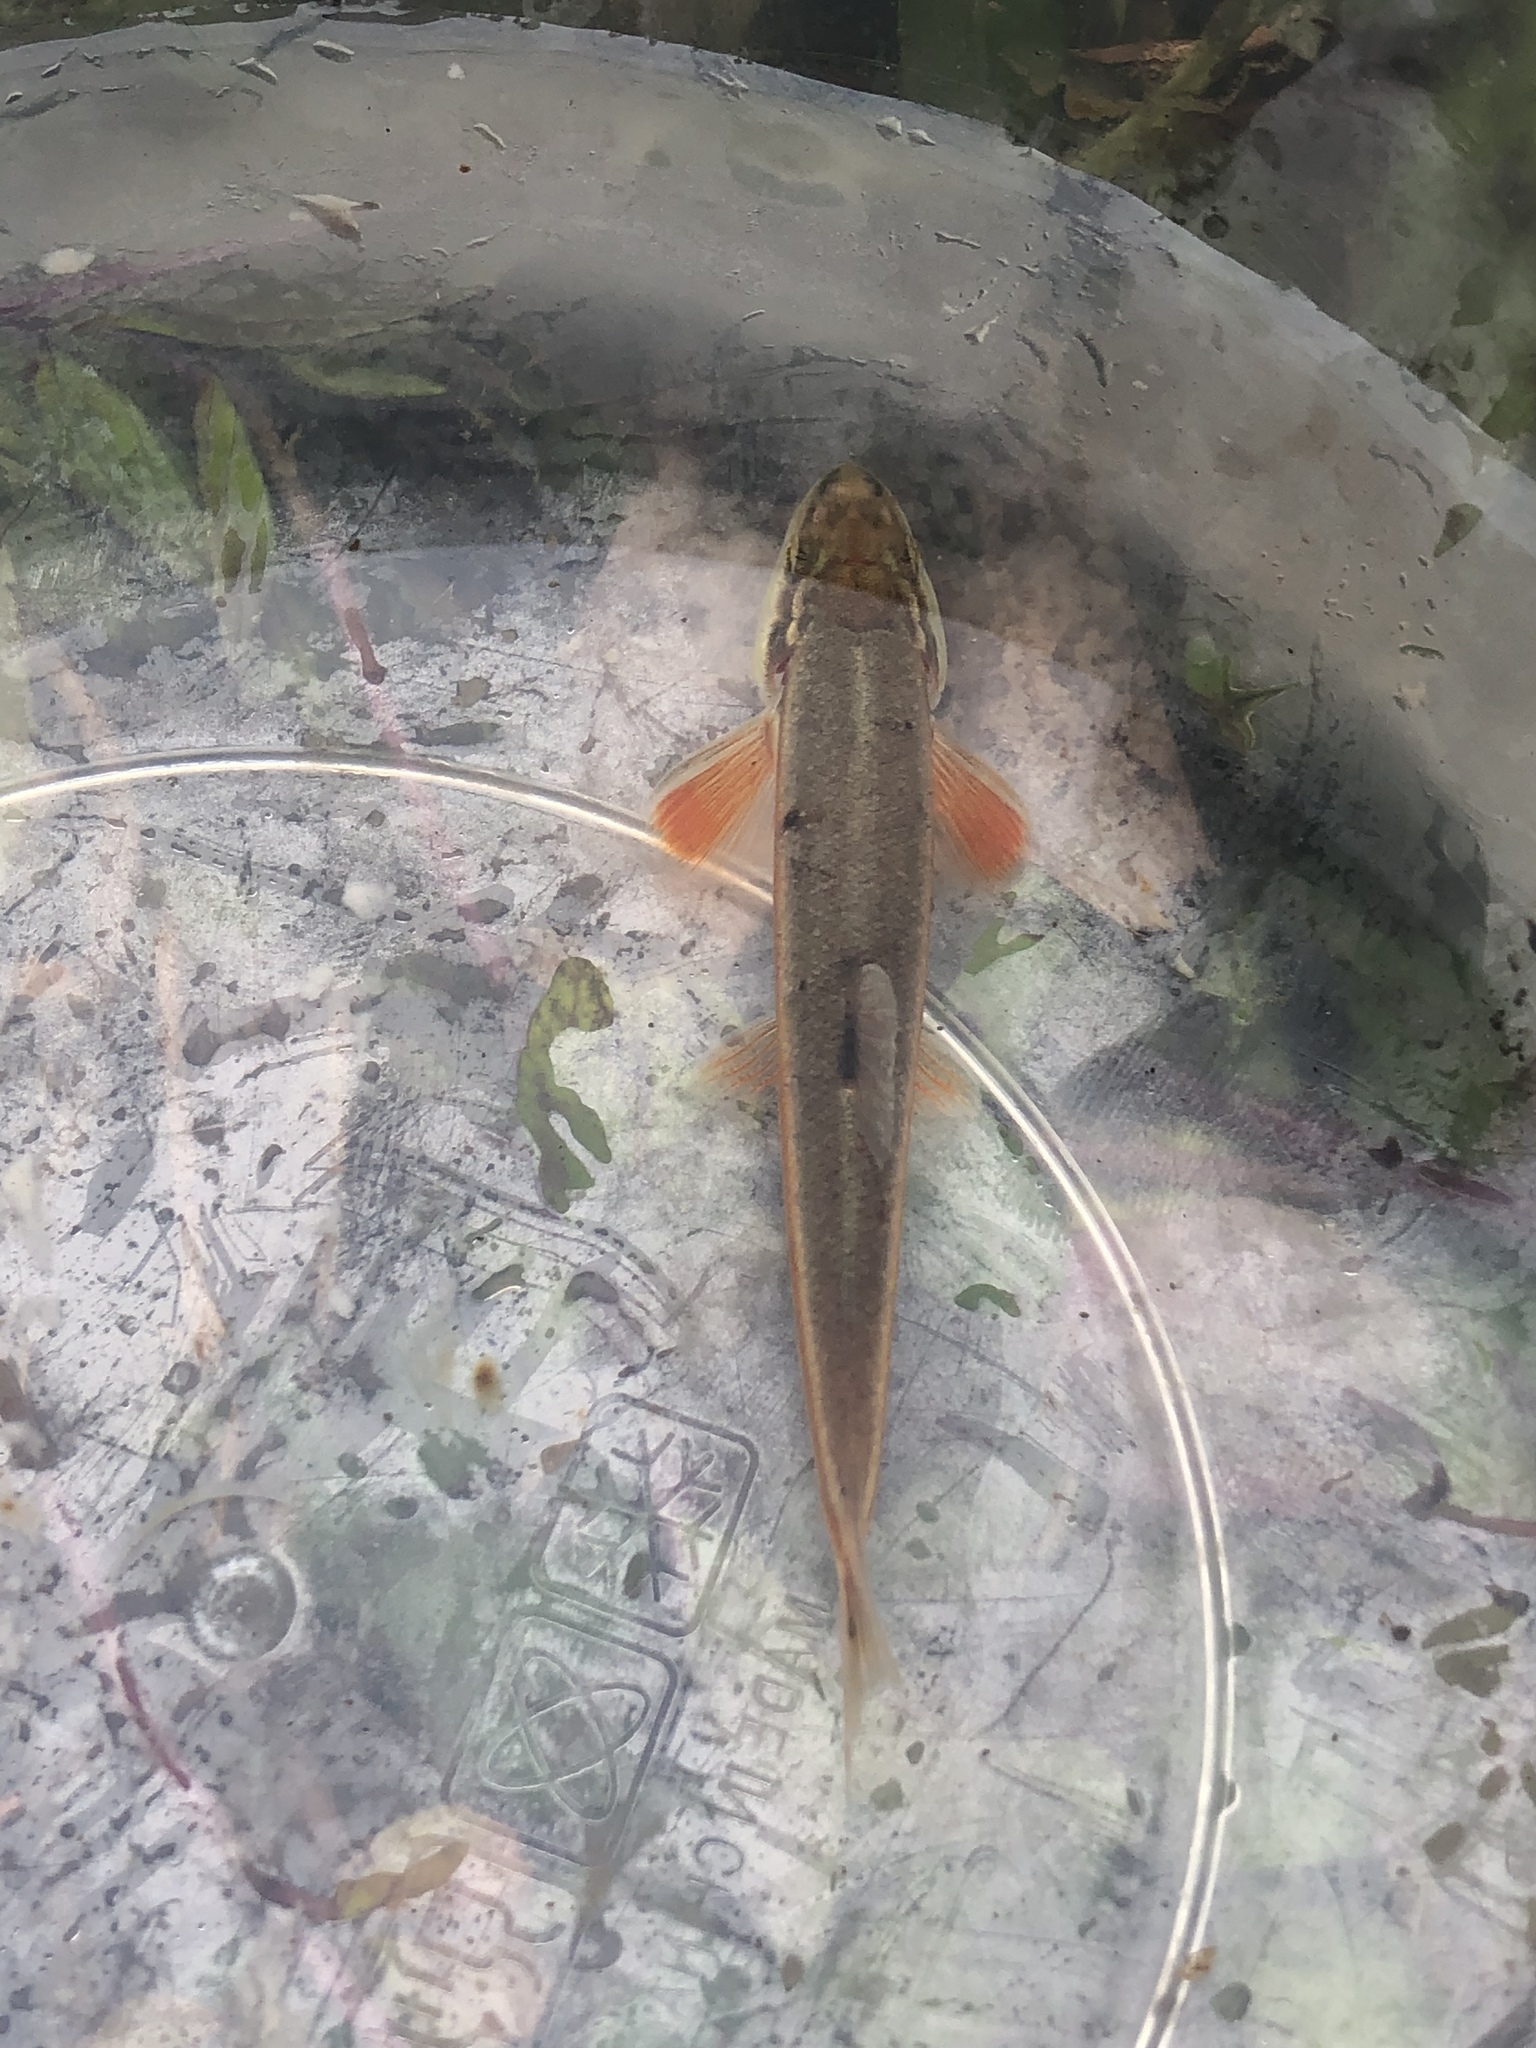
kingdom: Animalia
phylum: Chordata
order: Cypriniformes
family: Cyprinidae
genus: Rhinichthys
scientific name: Rhinichthys atratulus
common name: Eastern blacknose dace
